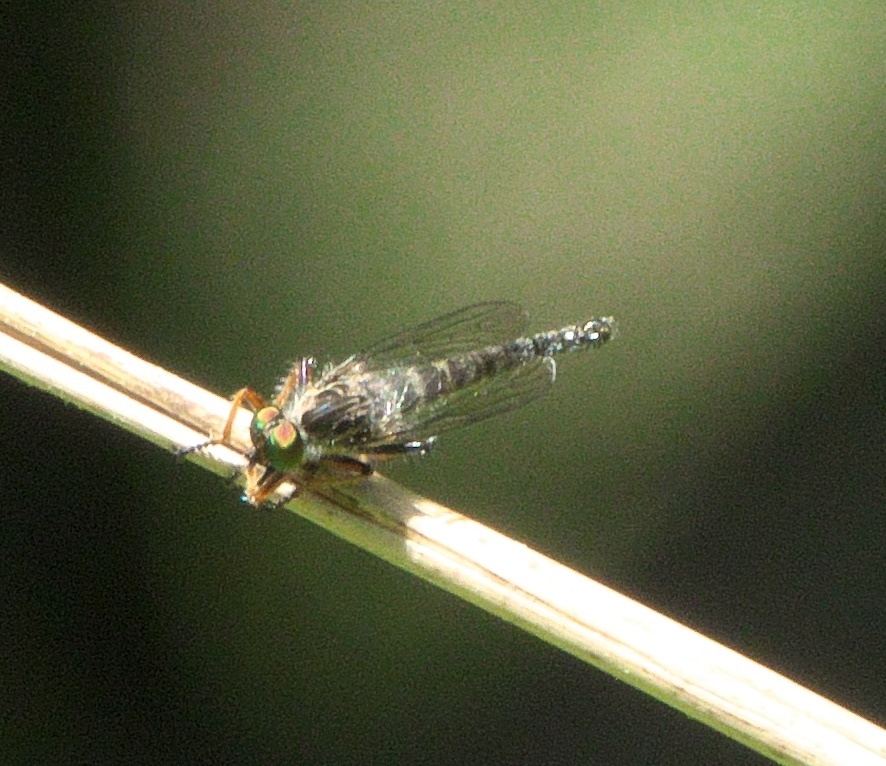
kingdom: Animalia
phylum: Arthropoda
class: Insecta
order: Diptera
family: Asilidae
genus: Asilus
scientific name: Asilus flavofemoratus
